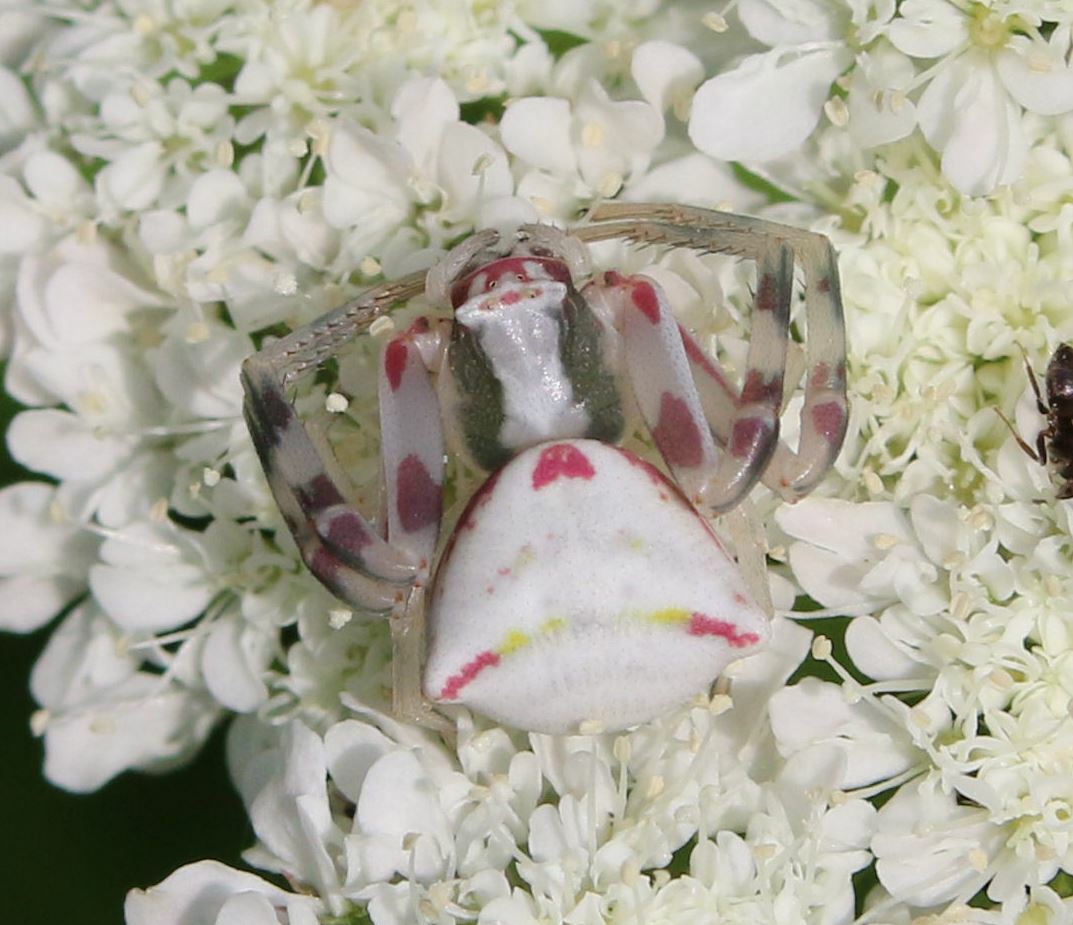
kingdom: Animalia
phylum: Arthropoda
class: Arachnida
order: Araneae
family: Thomisidae
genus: Thomisus
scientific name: Thomisus onustus
